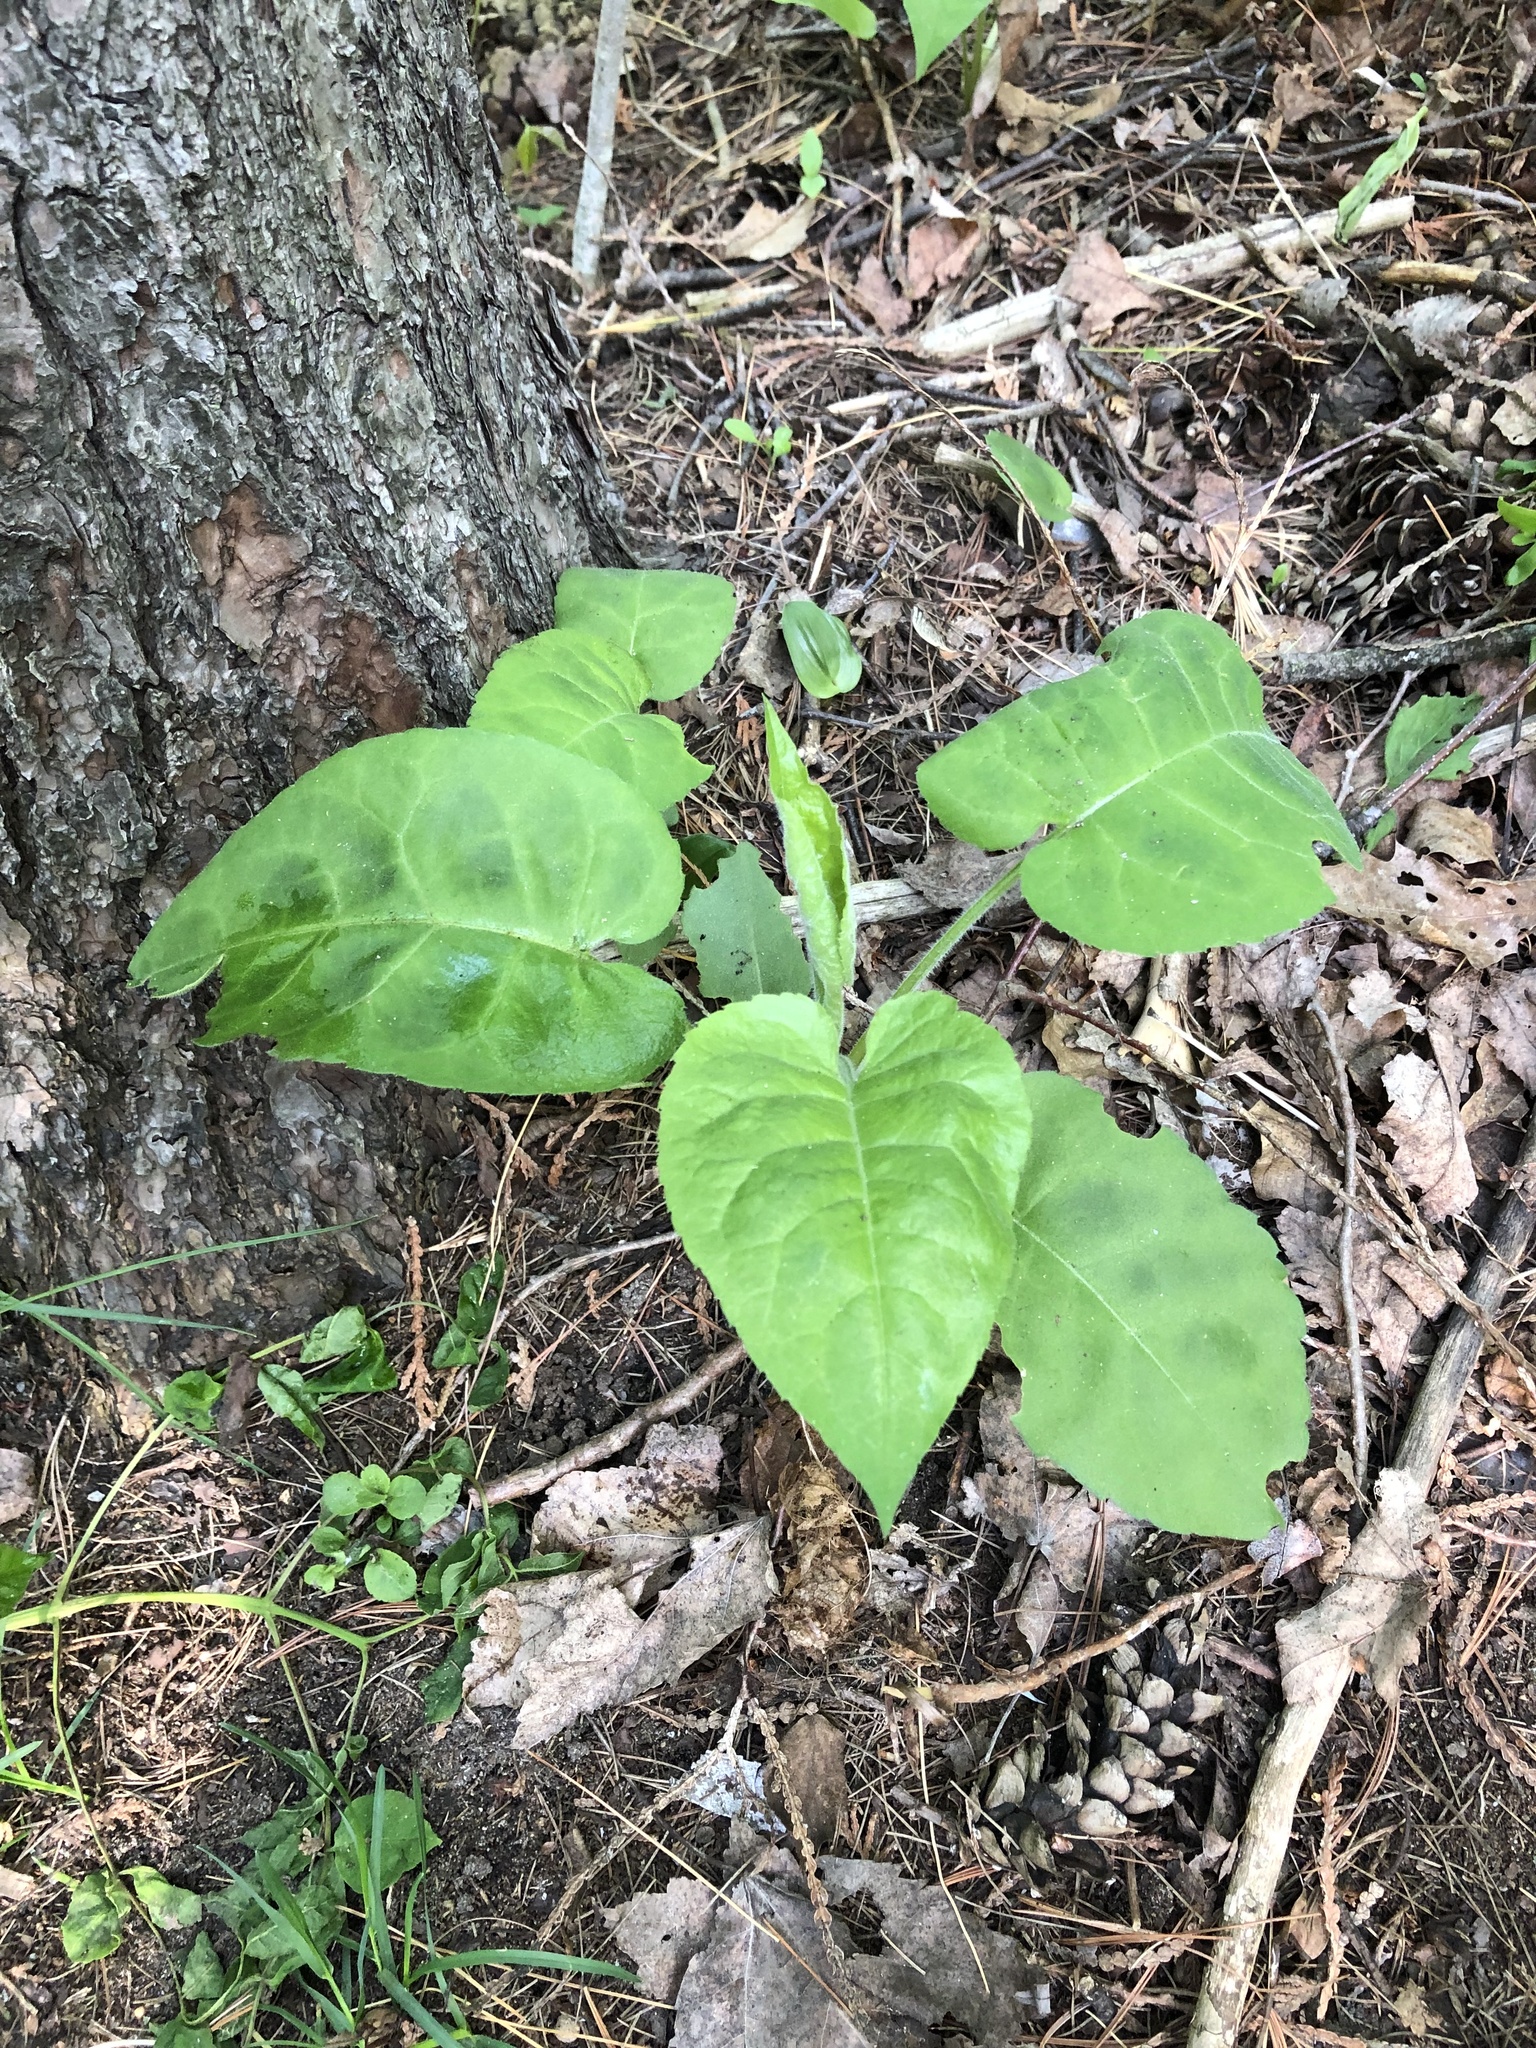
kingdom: Plantae
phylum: Tracheophyta
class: Magnoliopsida
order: Asterales
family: Asteraceae
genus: Eurybia
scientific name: Eurybia macrophylla
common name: Big-leaved aster
